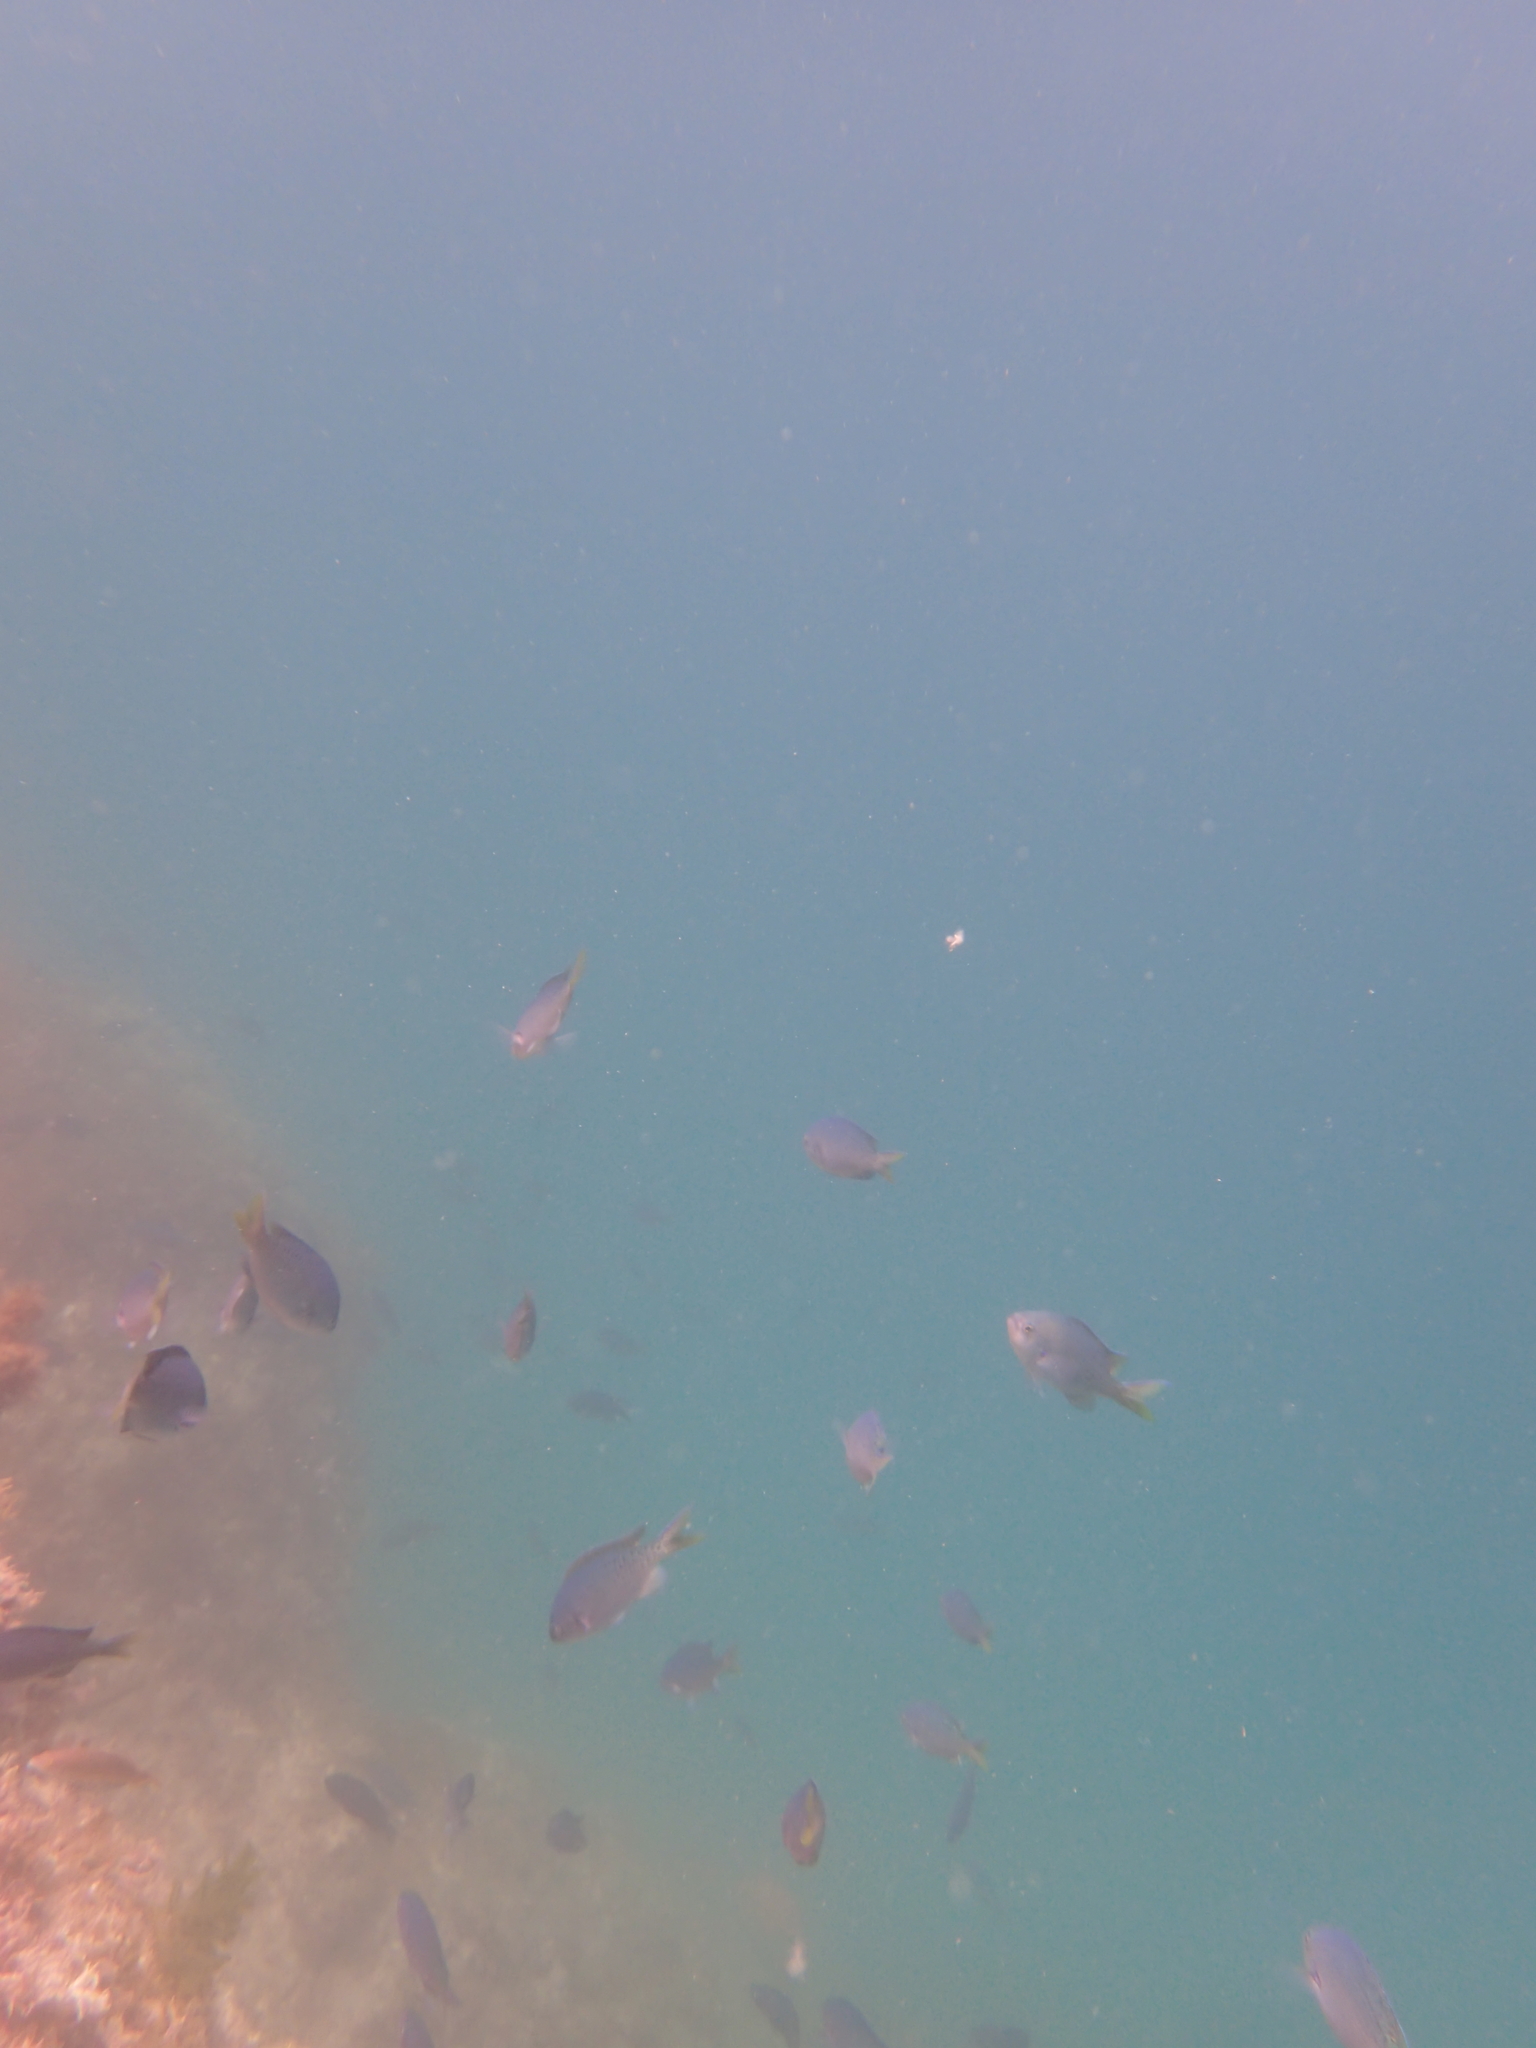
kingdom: Animalia
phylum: Chordata
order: Perciformes
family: Pomacentridae
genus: Chromis
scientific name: Chromis punctipinnis
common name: Blacksmith
